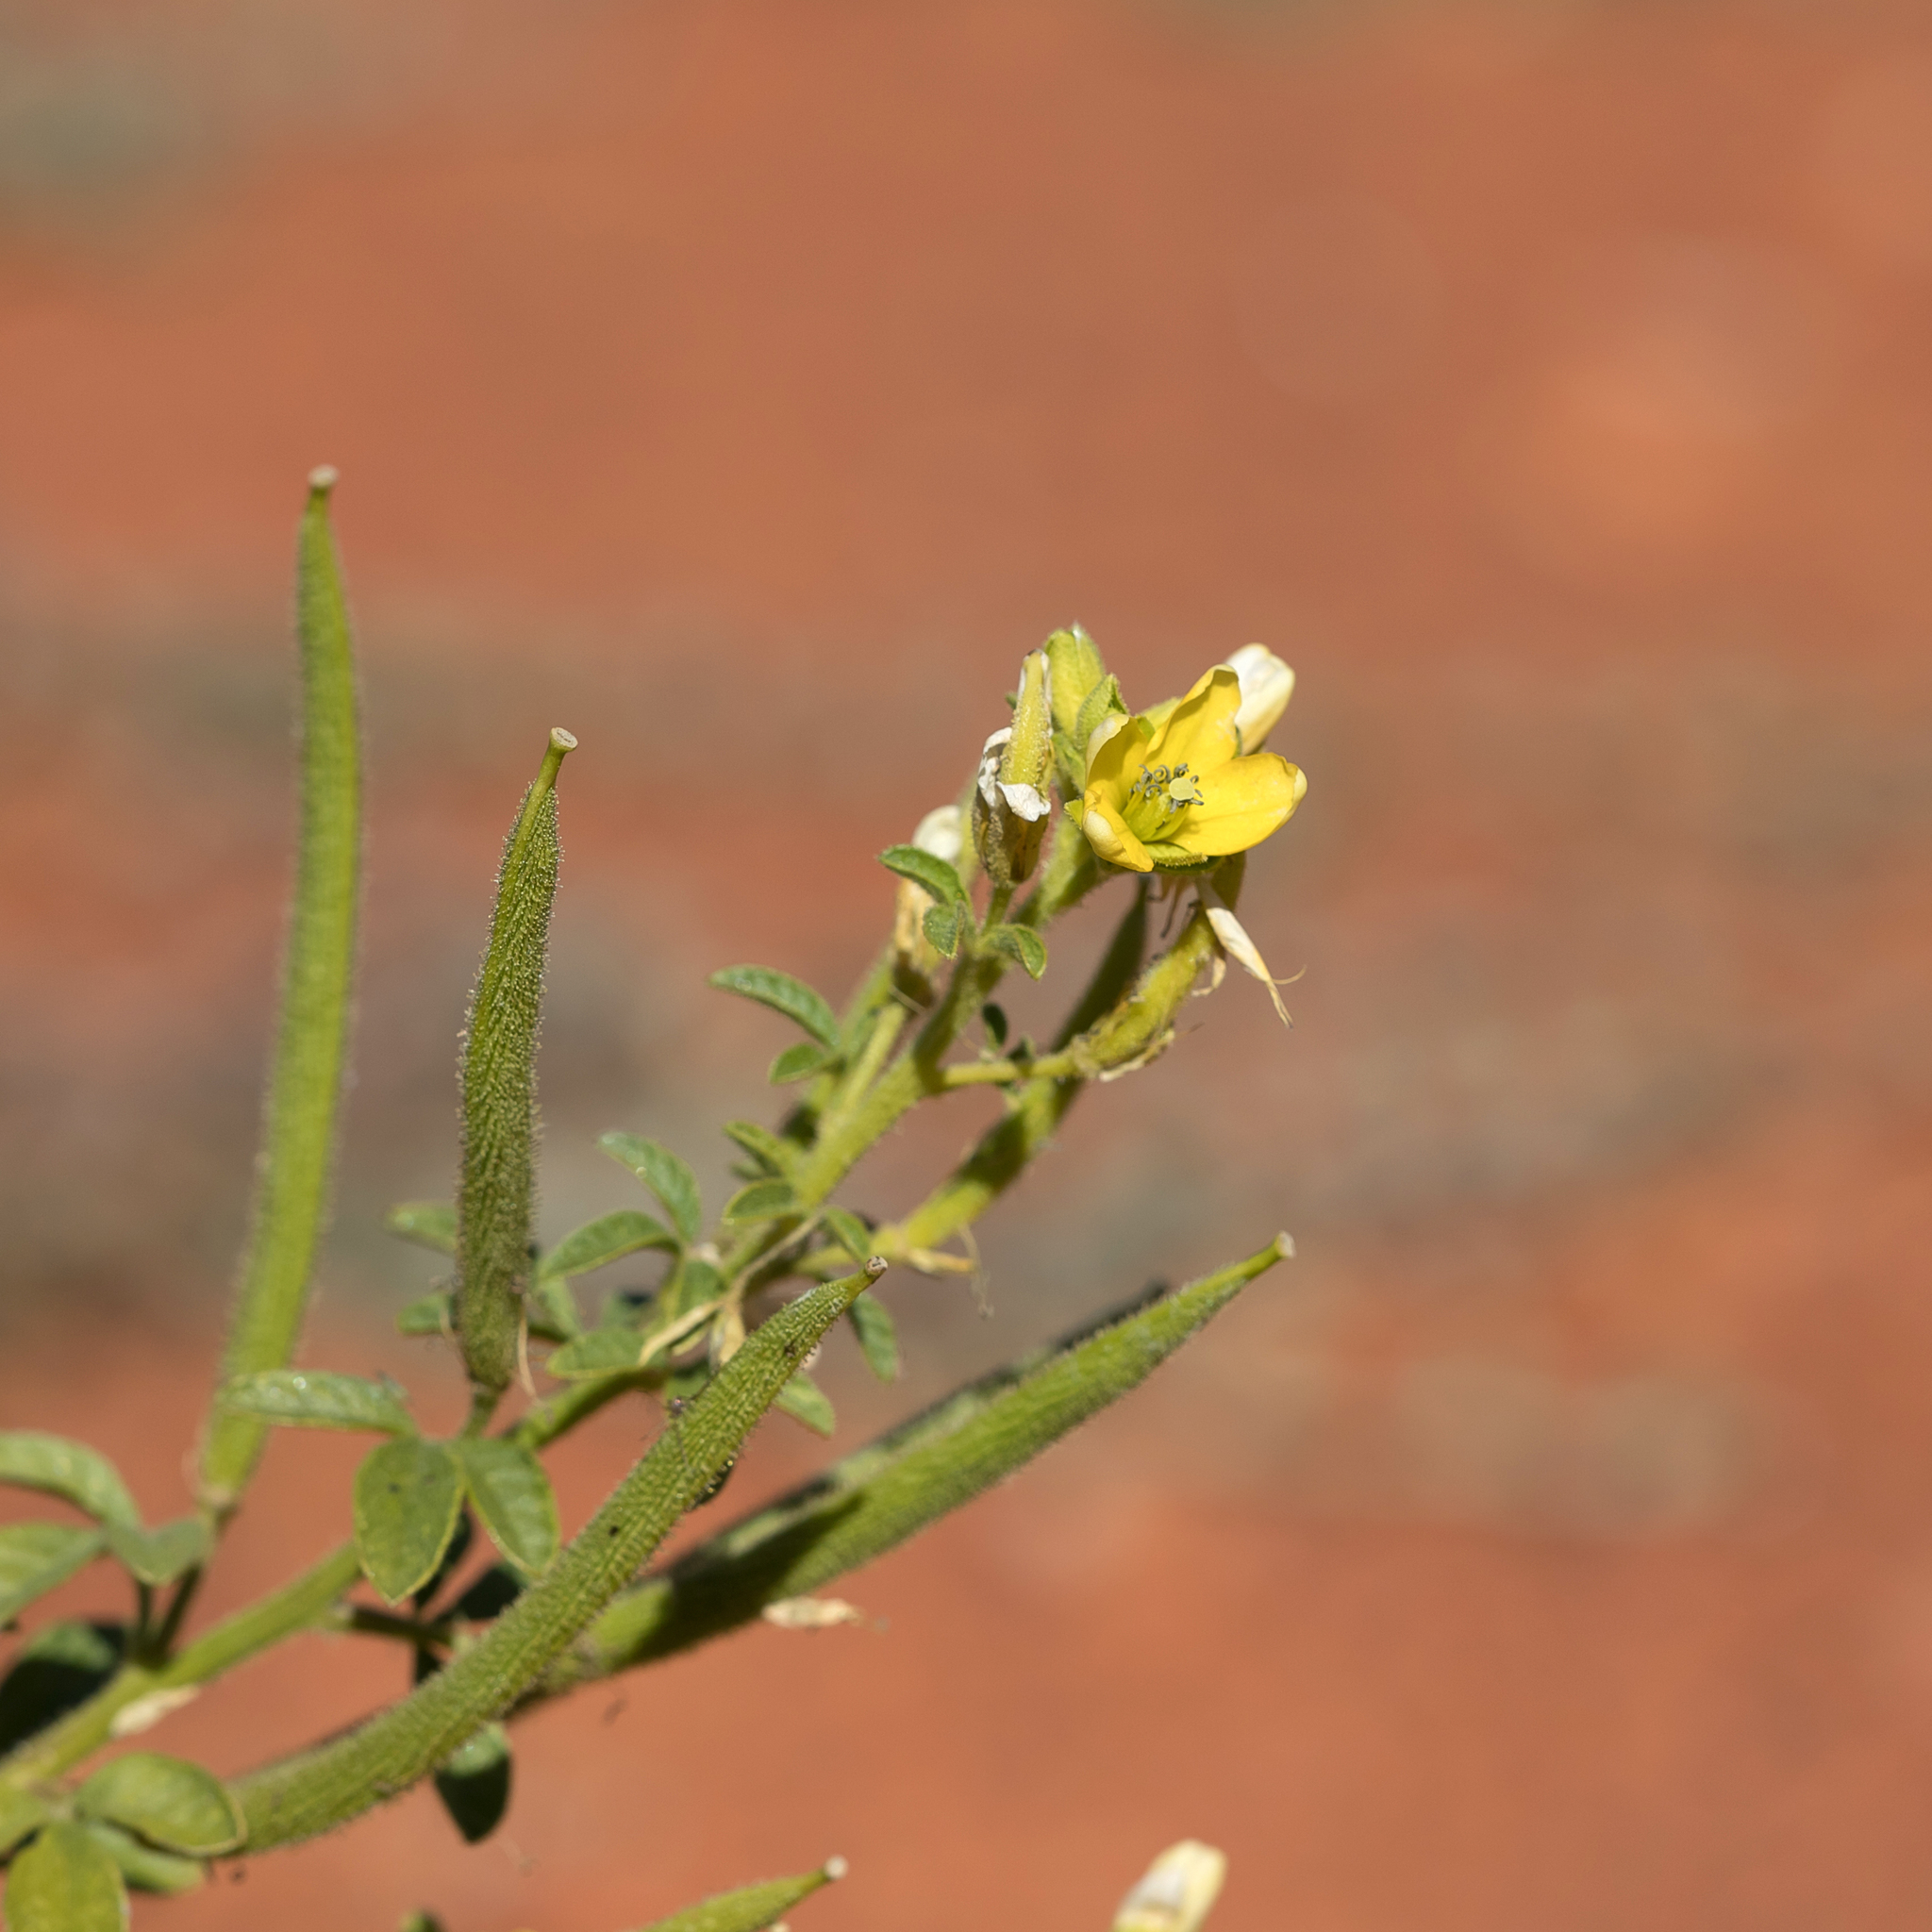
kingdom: Plantae
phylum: Tracheophyta
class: Magnoliopsida
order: Brassicales
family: Cleomaceae
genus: Arivela
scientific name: Arivela viscosa
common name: Asian spiderflower
